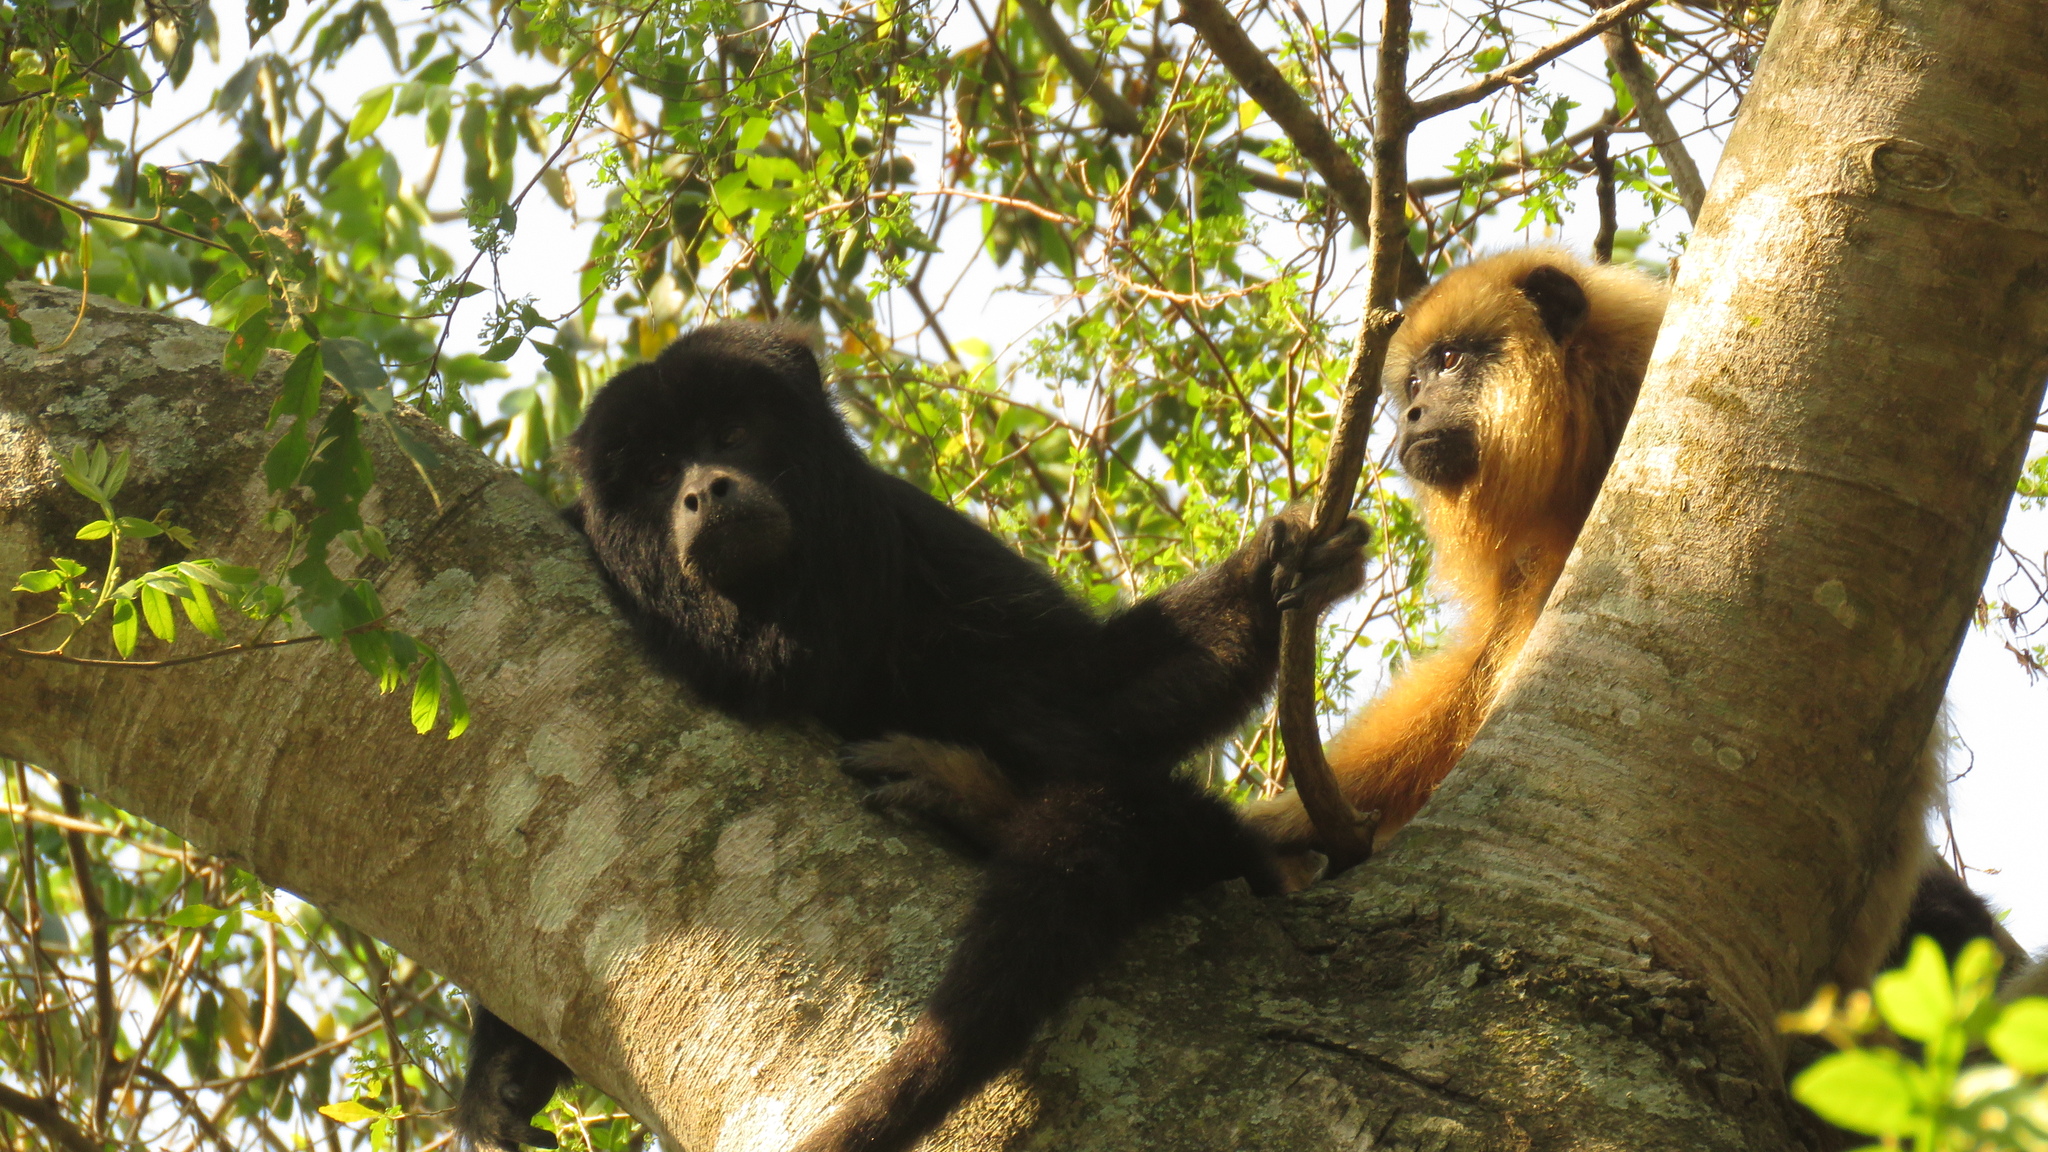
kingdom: Animalia
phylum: Chordata
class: Mammalia
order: Primates
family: Atelidae
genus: Alouatta
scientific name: Alouatta caraya
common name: Black howler
